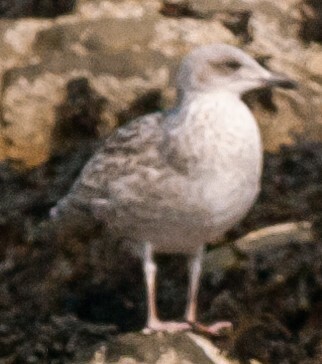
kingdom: Animalia
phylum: Chordata
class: Aves
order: Charadriiformes
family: Laridae
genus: Larus
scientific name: Larus argentatus
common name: Herring gull
